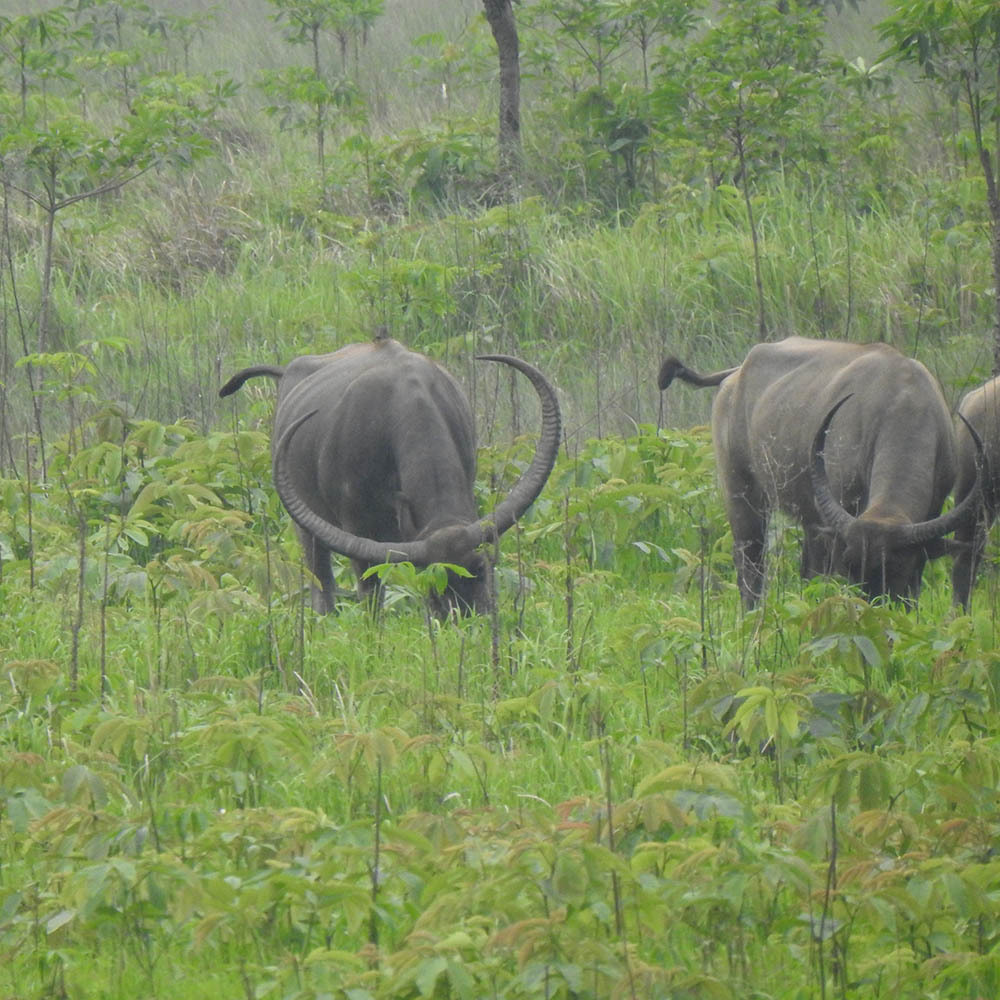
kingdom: Animalia
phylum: Chordata
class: Mammalia
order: Artiodactyla
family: Bovidae
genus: Bubalus
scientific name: Bubalus bubalis
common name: Water buffalo
